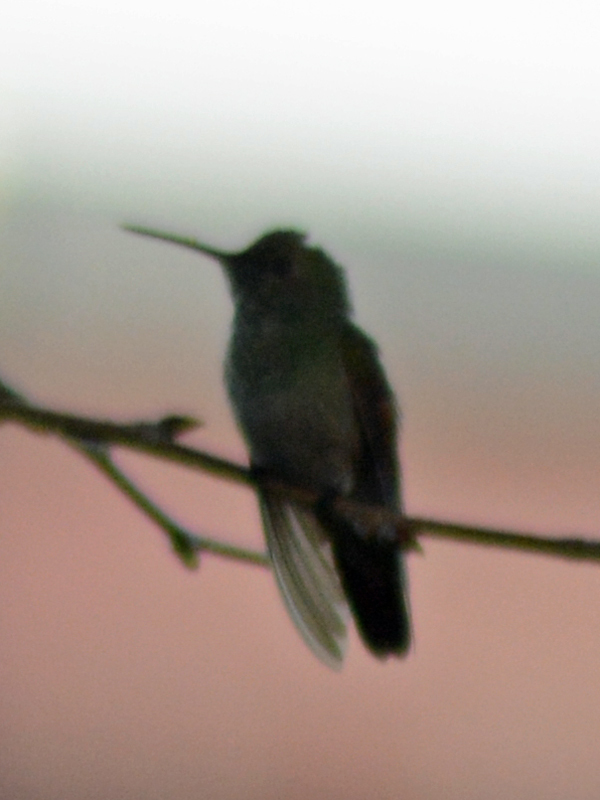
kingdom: Animalia
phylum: Chordata
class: Aves
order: Apodiformes
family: Trochilidae
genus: Saucerottia
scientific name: Saucerottia beryllina
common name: Berylline hummingbird
